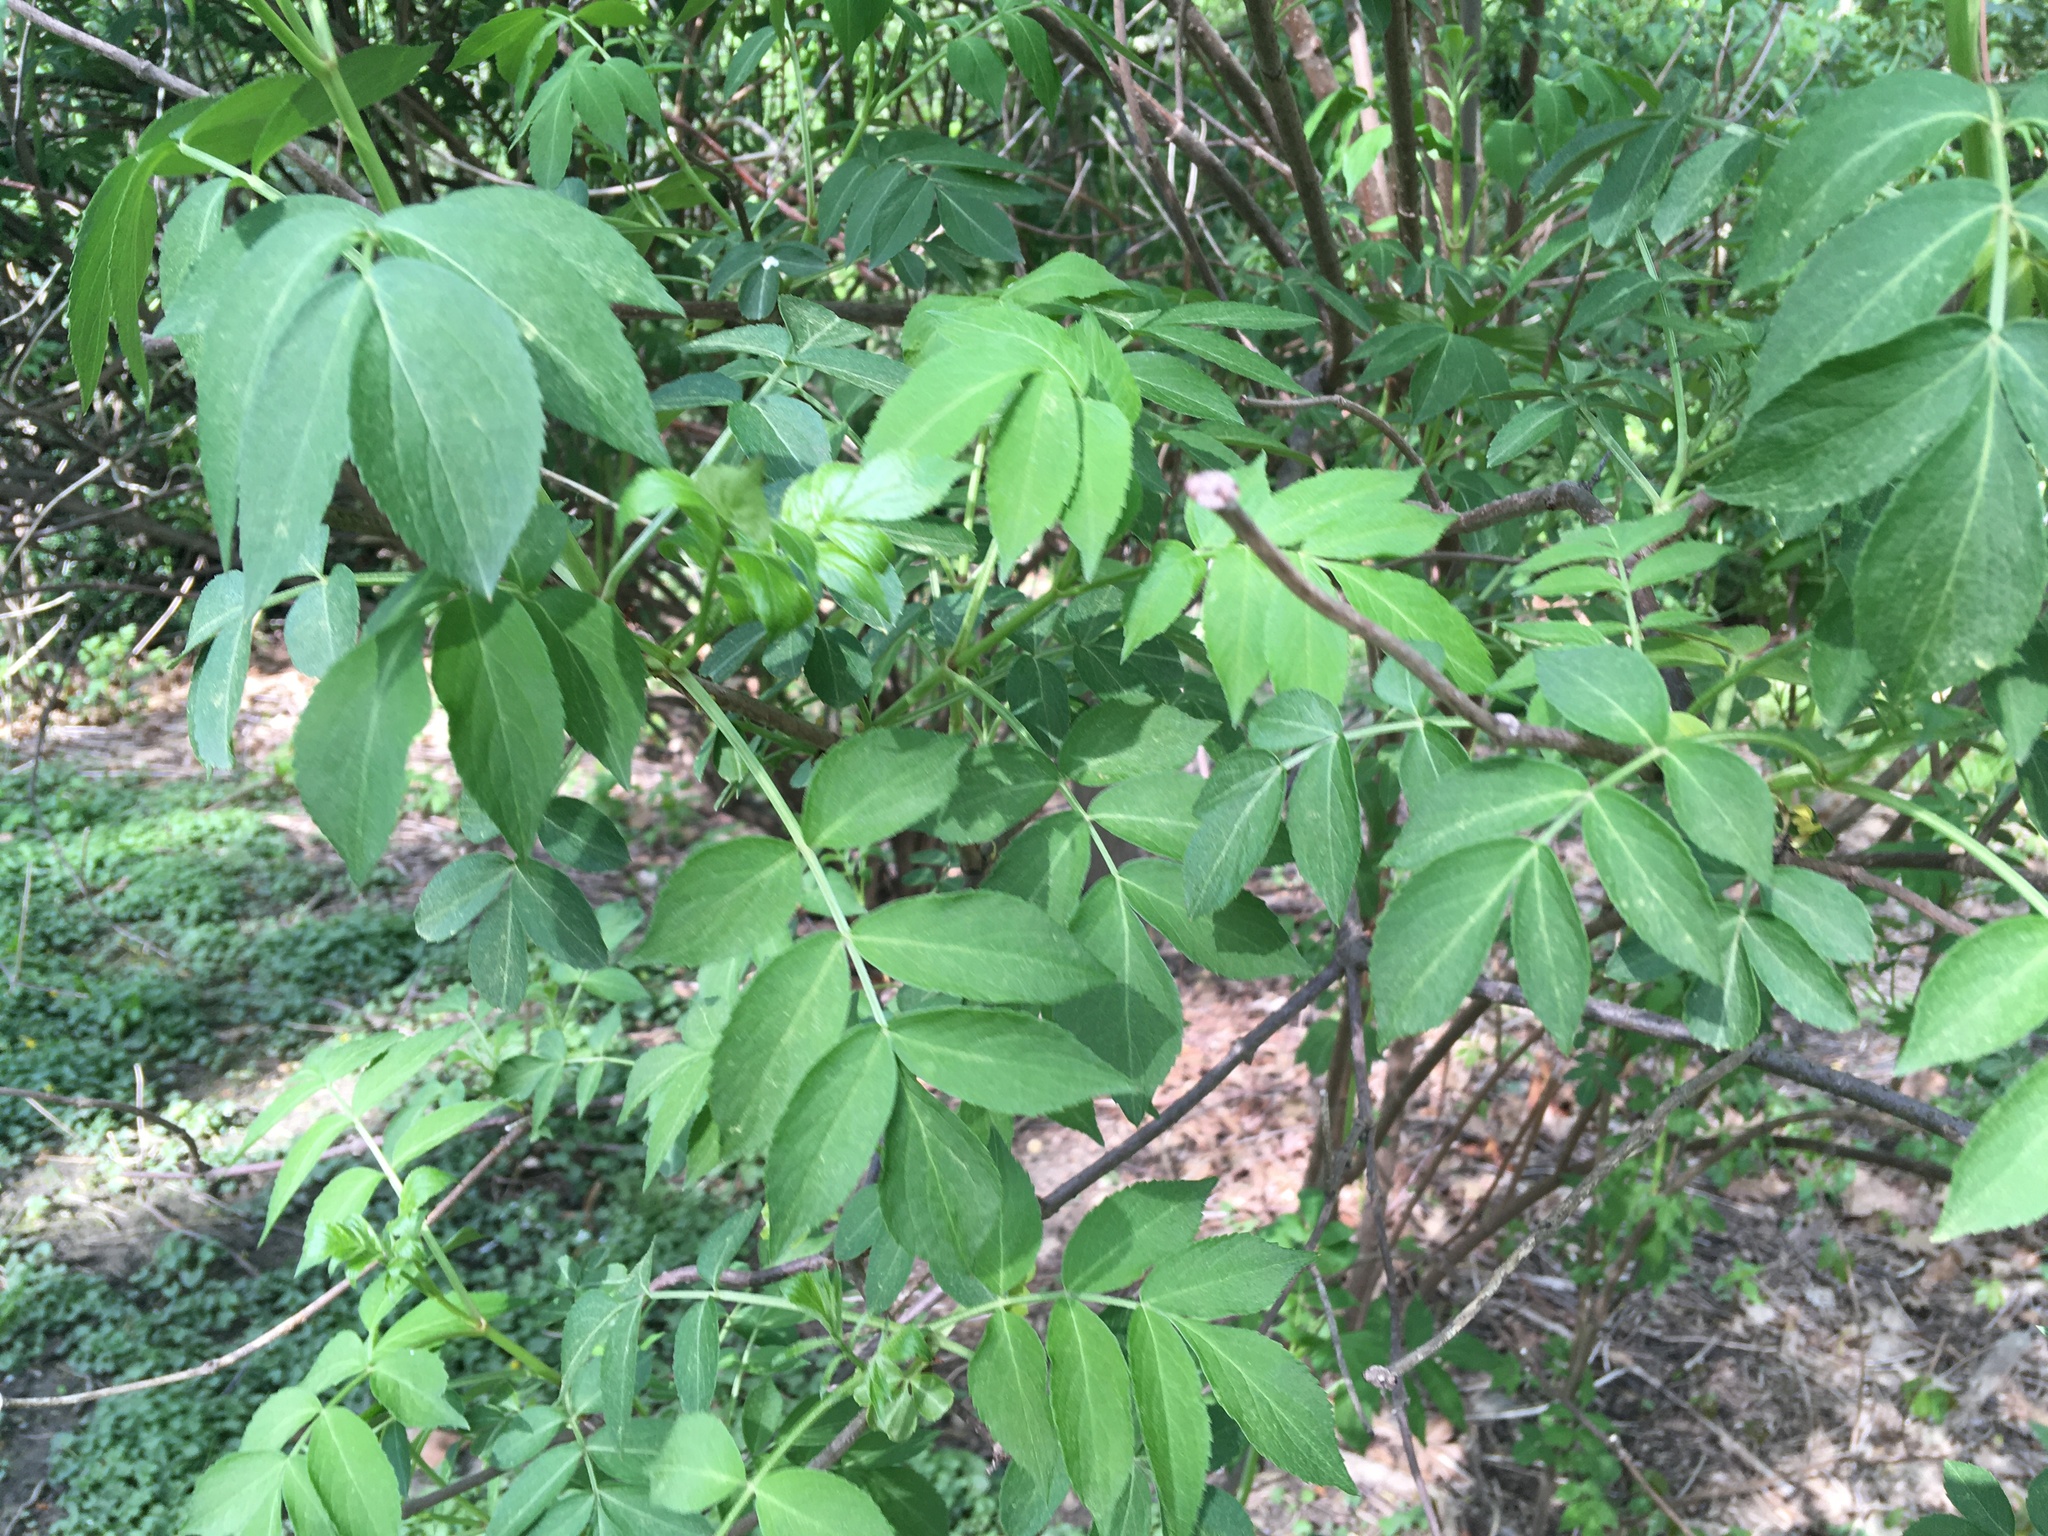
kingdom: Plantae
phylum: Tracheophyta
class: Magnoliopsida
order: Dipsacales
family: Viburnaceae
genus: Sambucus
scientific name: Sambucus canadensis
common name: American elder
